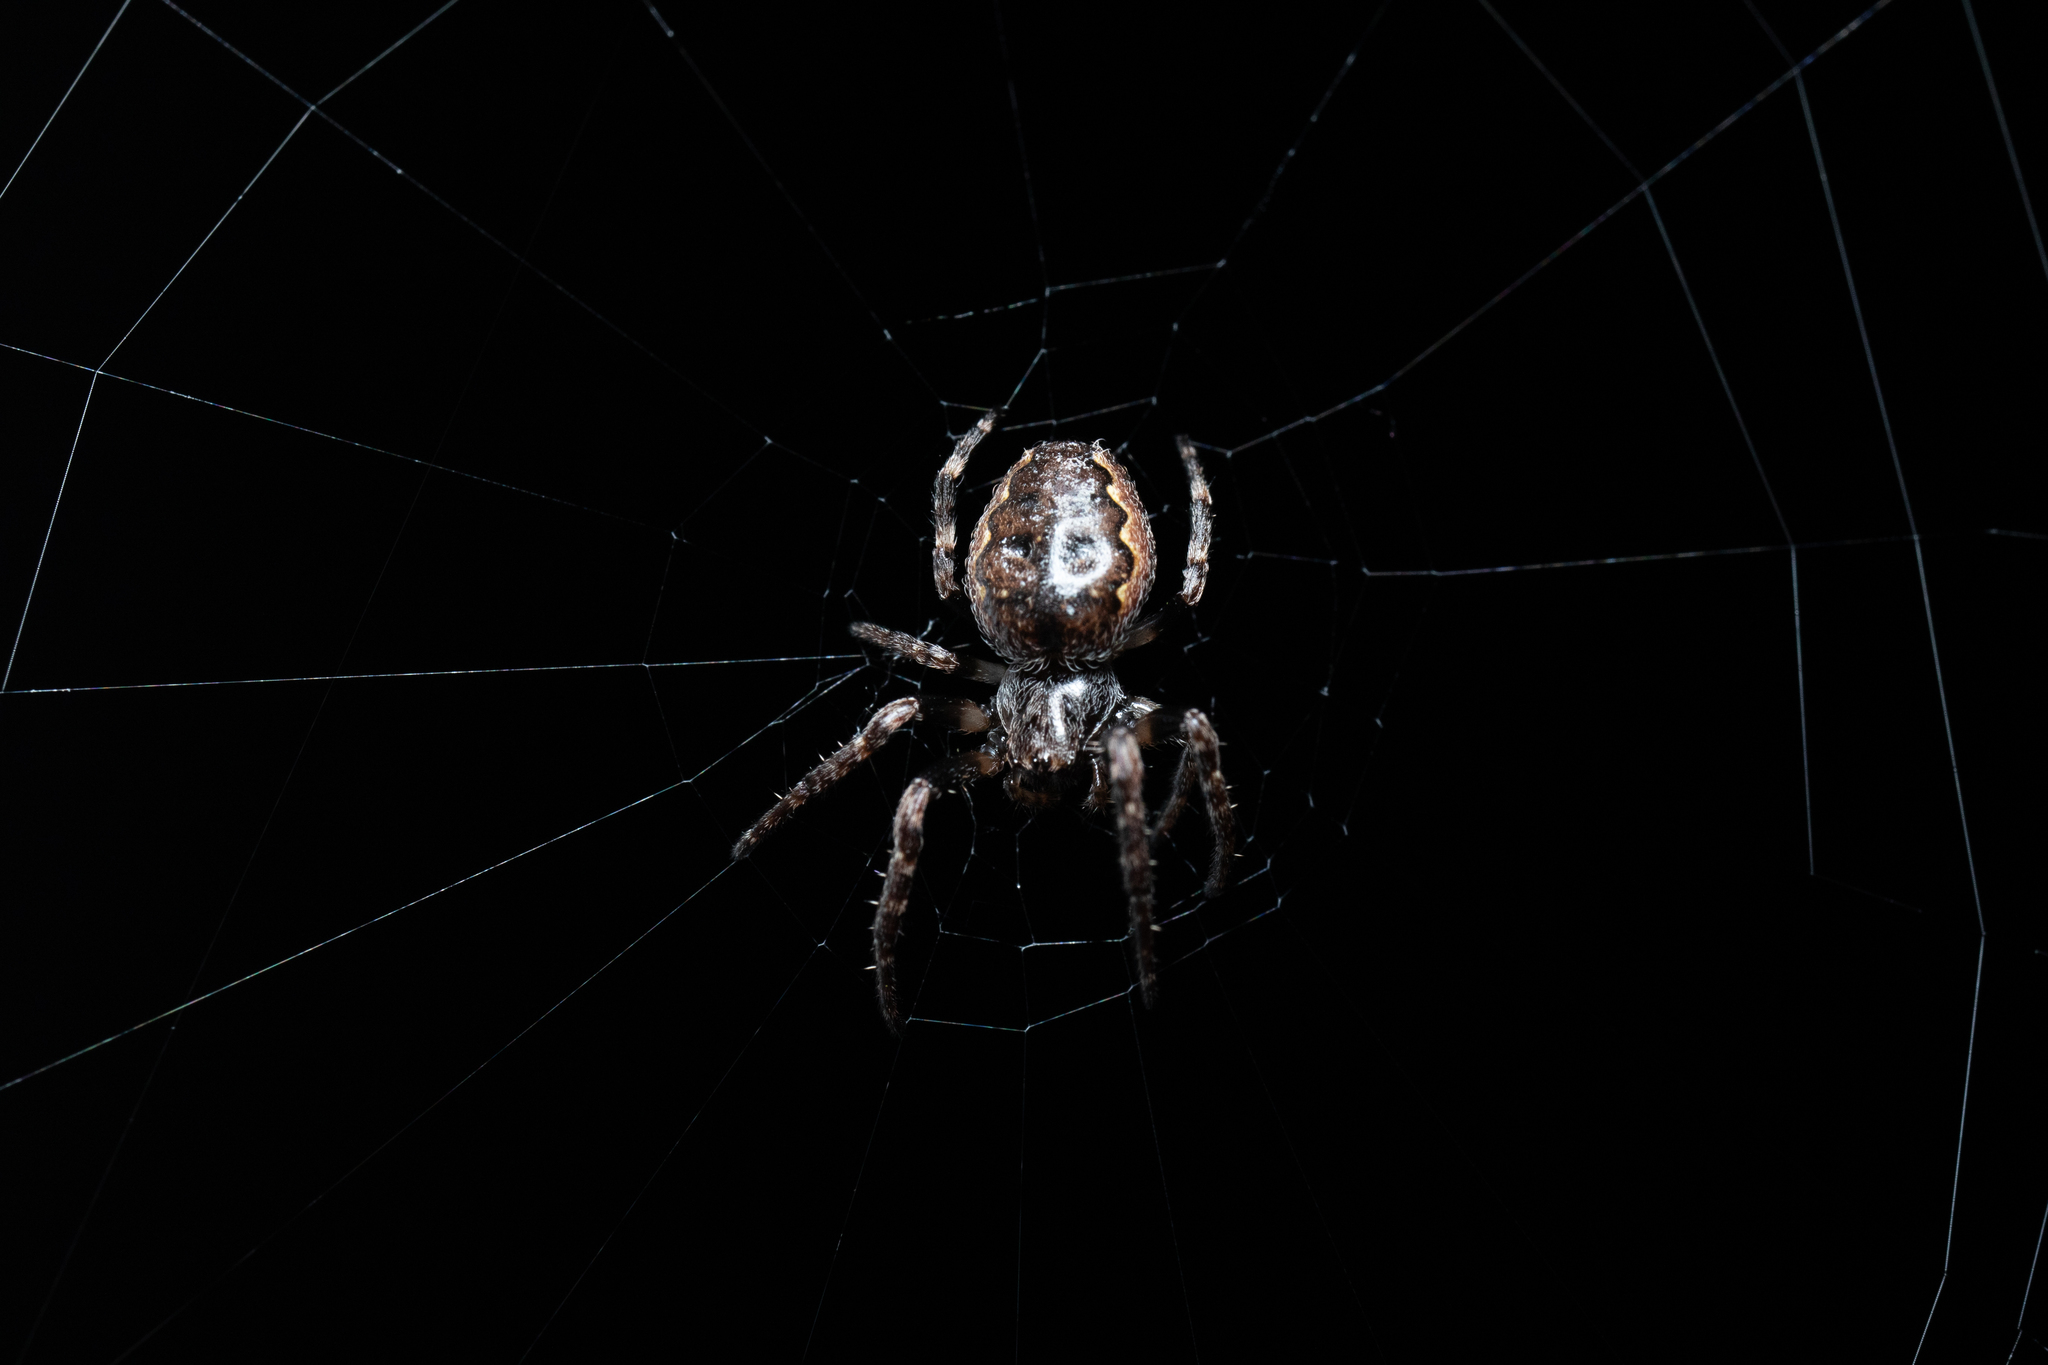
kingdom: Animalia
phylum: Arthropoda
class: Arachnida
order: Araneae
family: Araneidae
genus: Nuctenea
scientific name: Nuctenea umbratica
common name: Toad spider
